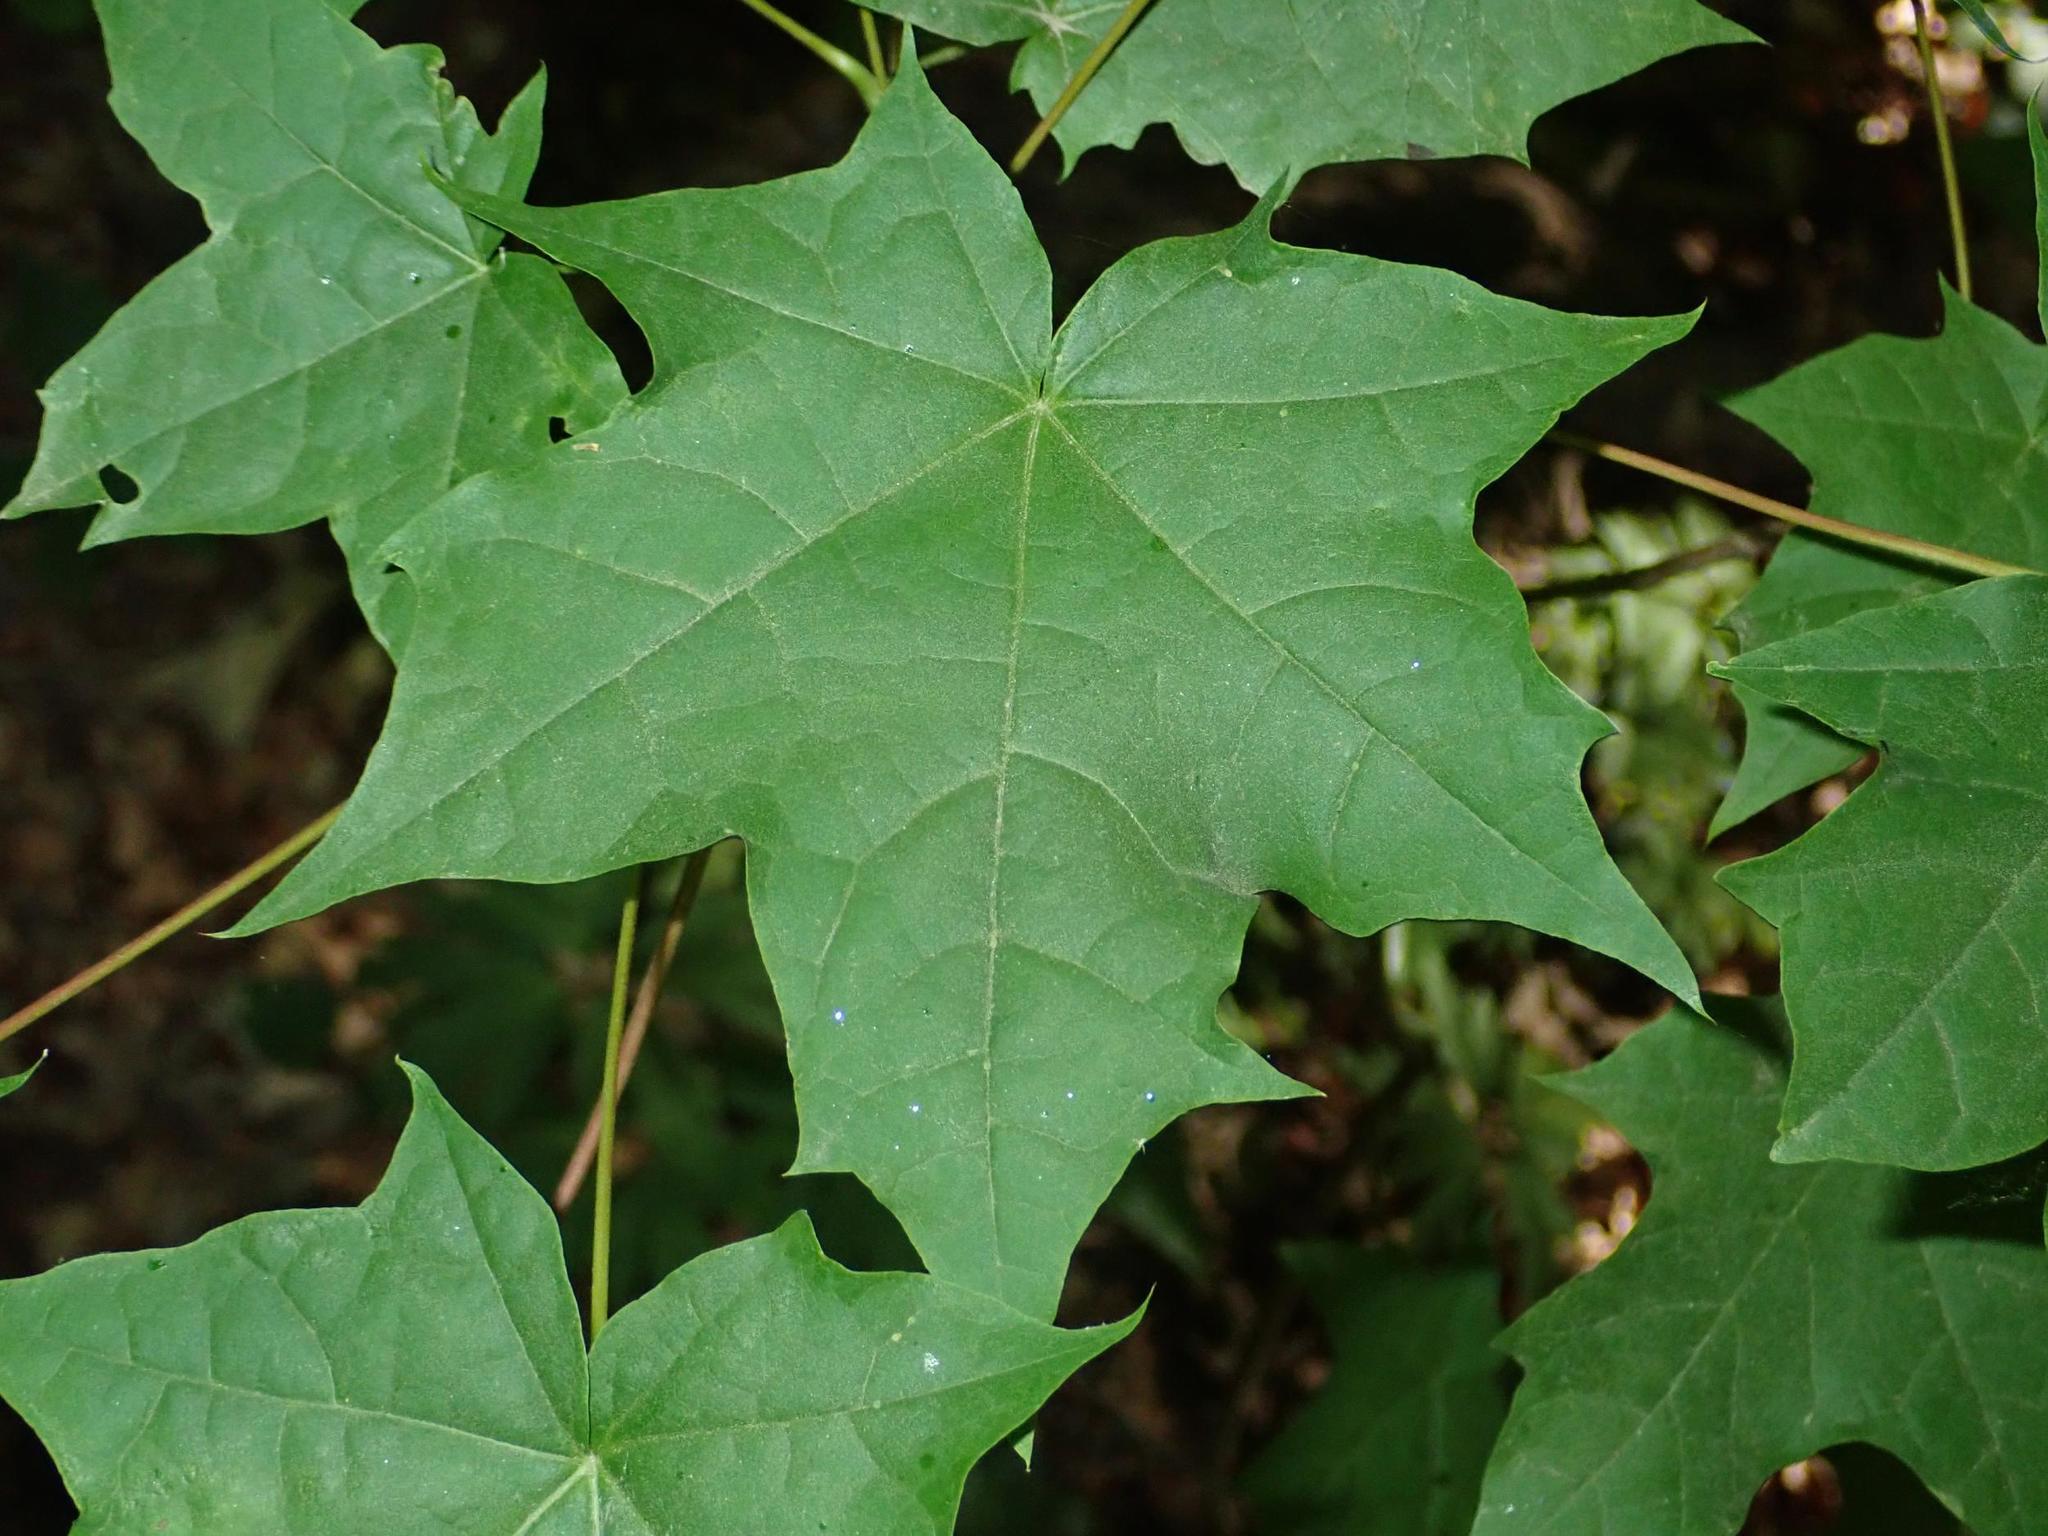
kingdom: Plantae
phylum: Tracheophyta
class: Magnoliopsida
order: Sapindales
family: Sapindaceae
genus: Acer
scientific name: Acer platanoides
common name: Norway maple
